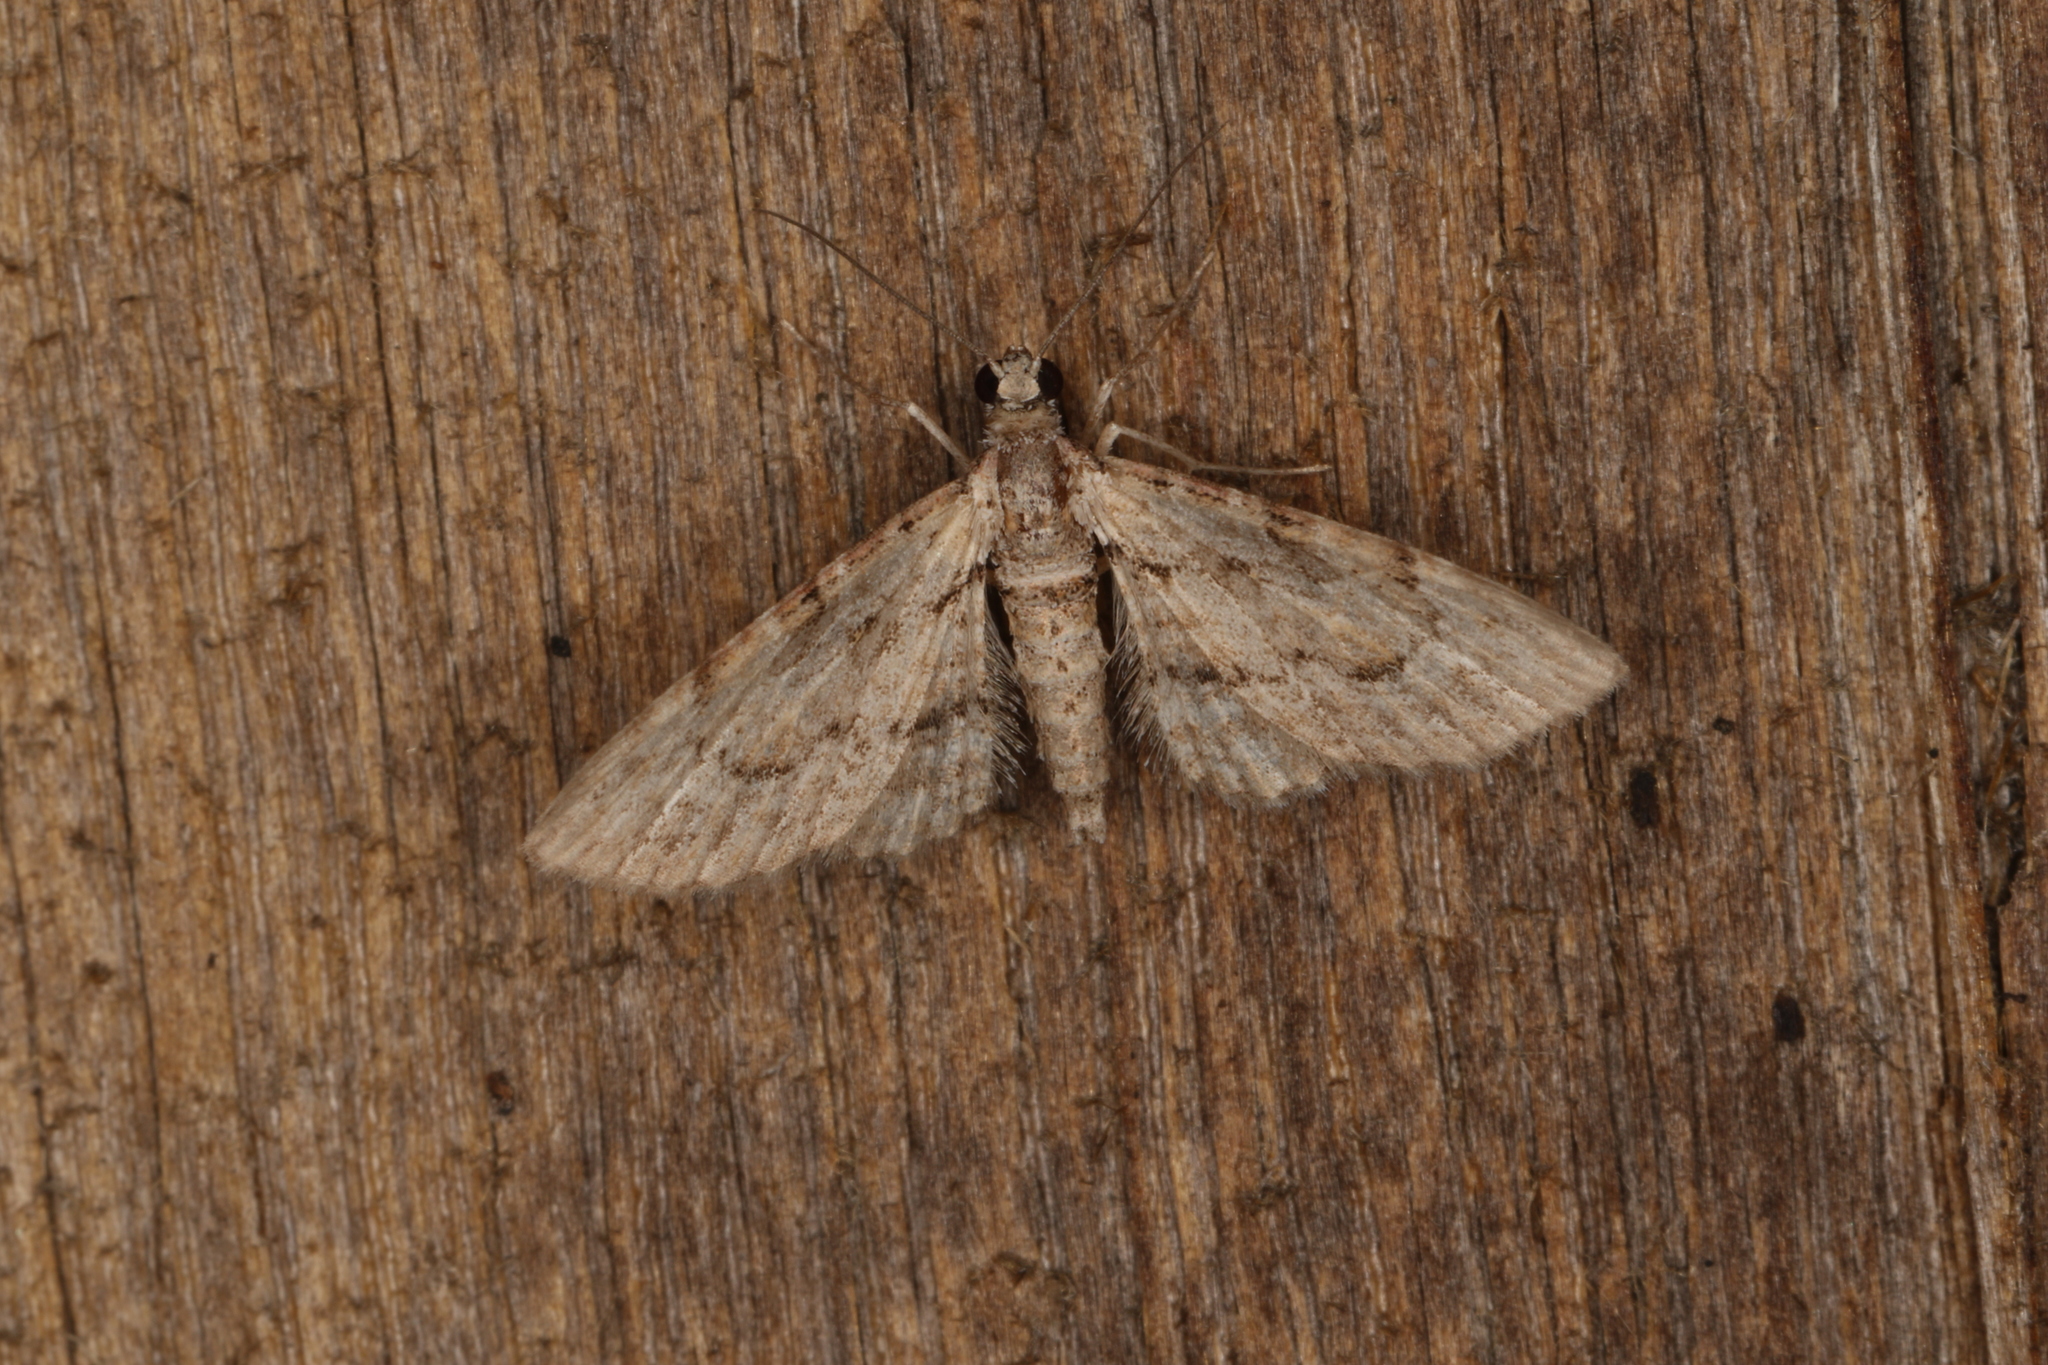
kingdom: Animalia
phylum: Arthropoda
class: Insecta
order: Lepidoptera
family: Geometridae
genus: Chloroclystis
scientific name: Chloroclystis insigillata
